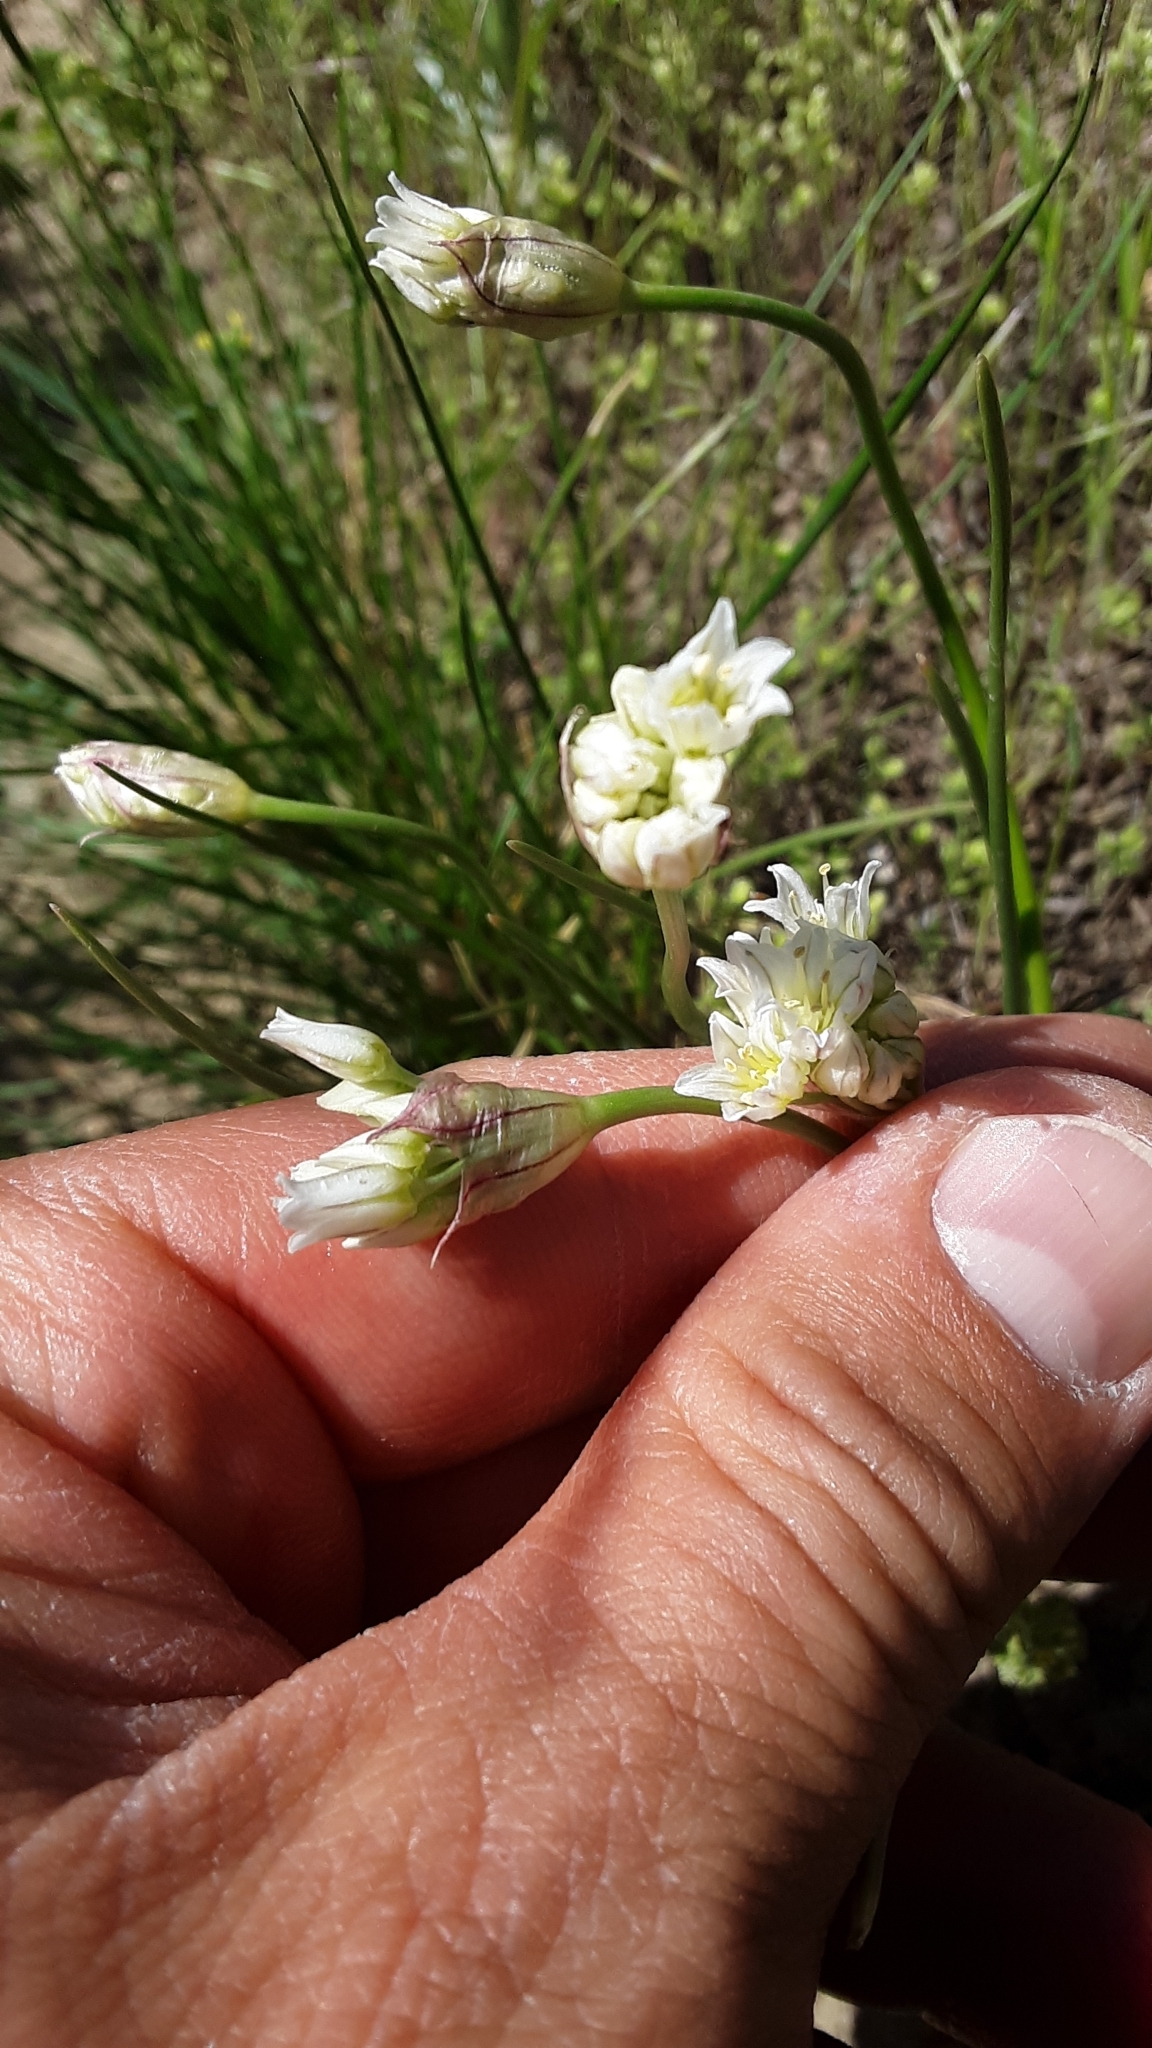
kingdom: Plantae
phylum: Tracheophyta
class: Liliopsida
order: Asparagales
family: Amaryllidaceae
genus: Allium
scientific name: Allium textile
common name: Prairie onion
